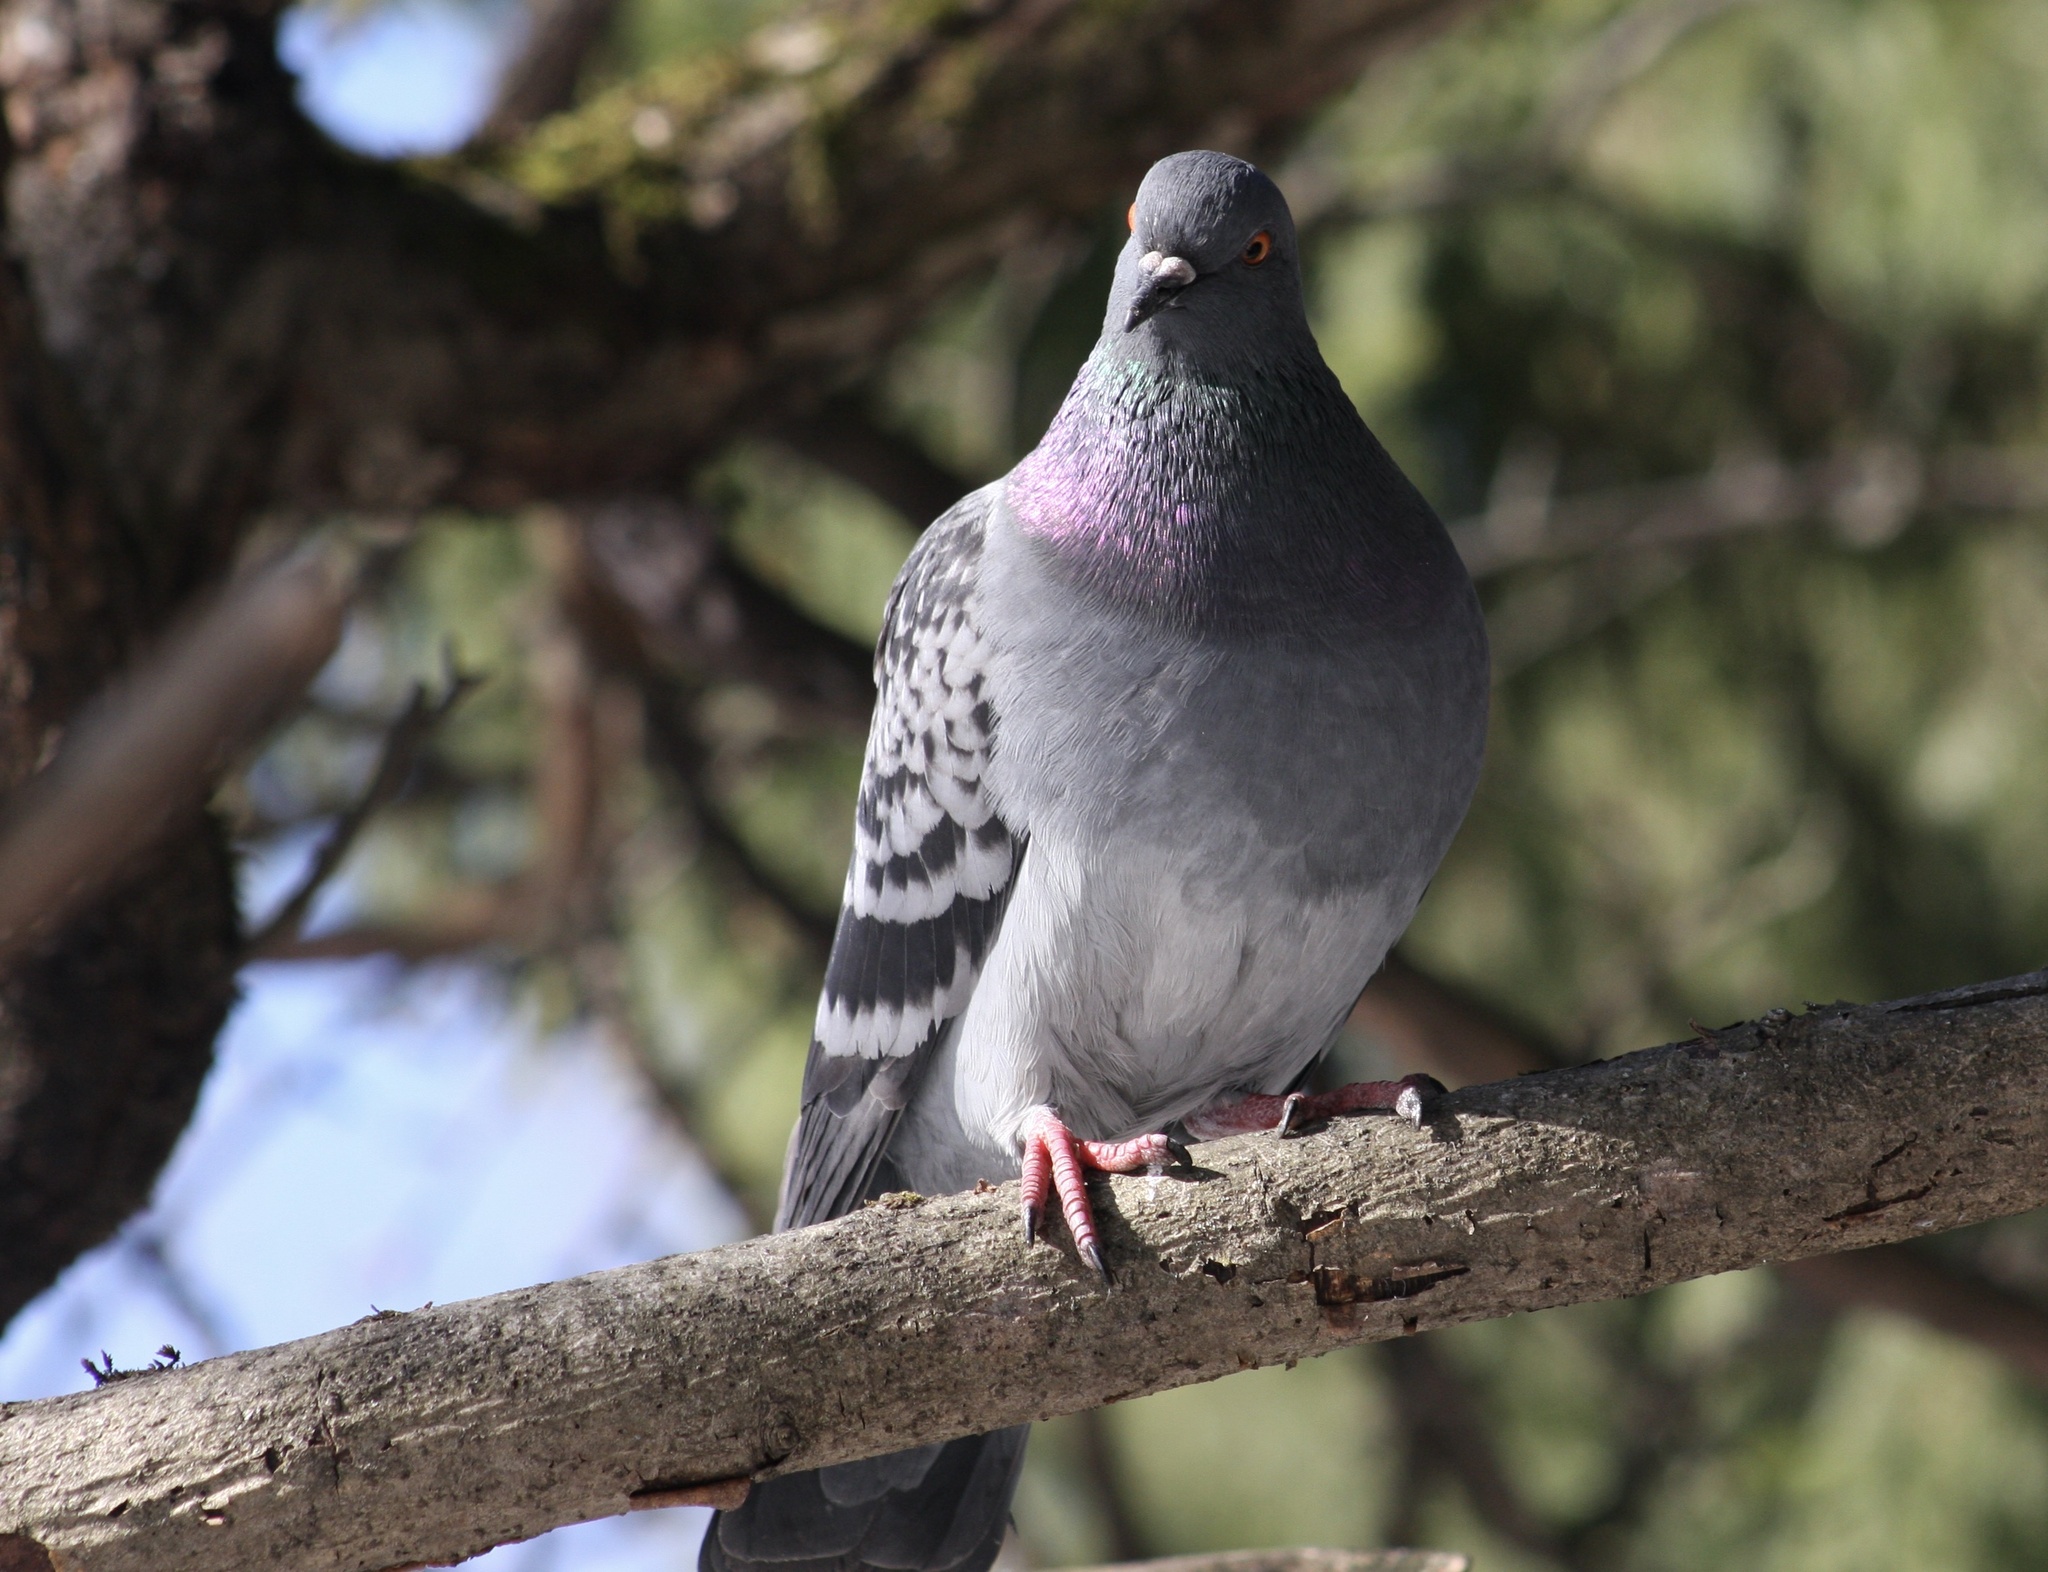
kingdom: Animalia
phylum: Chordata
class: Aves
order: Columbiformes
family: Columbidae
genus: Columba
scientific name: Columba livia
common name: Rock pigeon
